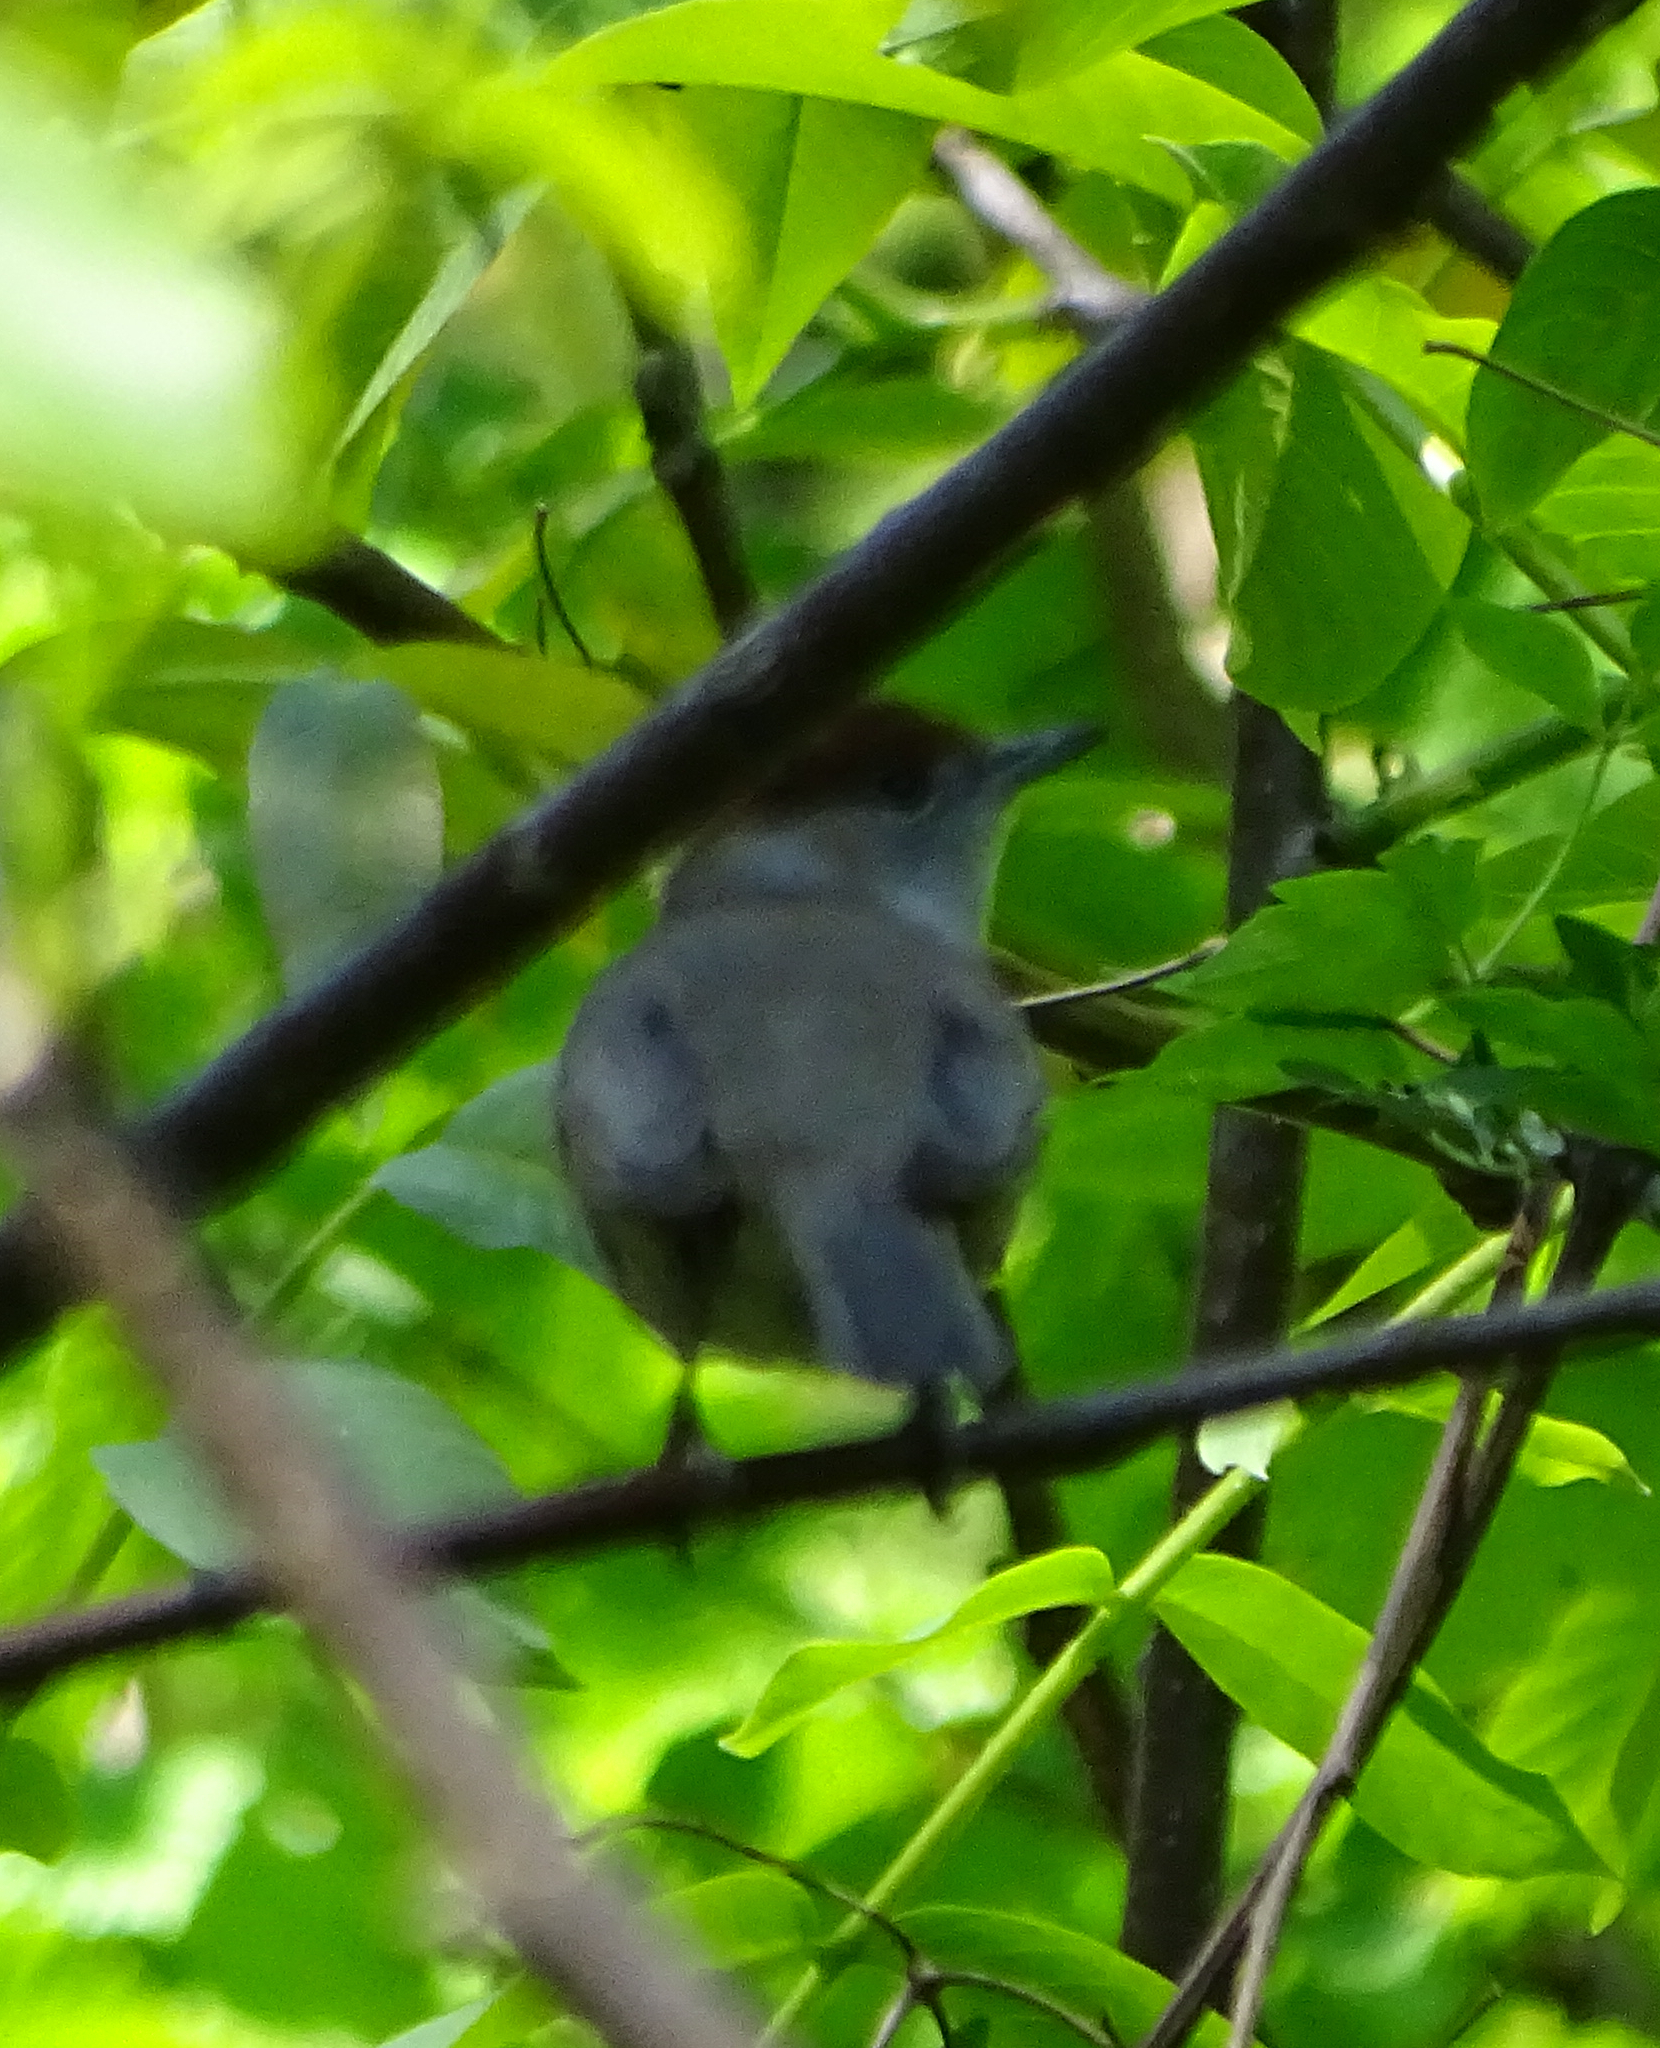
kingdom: Animalia
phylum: Chordata
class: Aves
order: Passeriformes
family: Sylviidae
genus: Sylvia
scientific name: Sylvia atricapilla
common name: Eurasian blackcap
